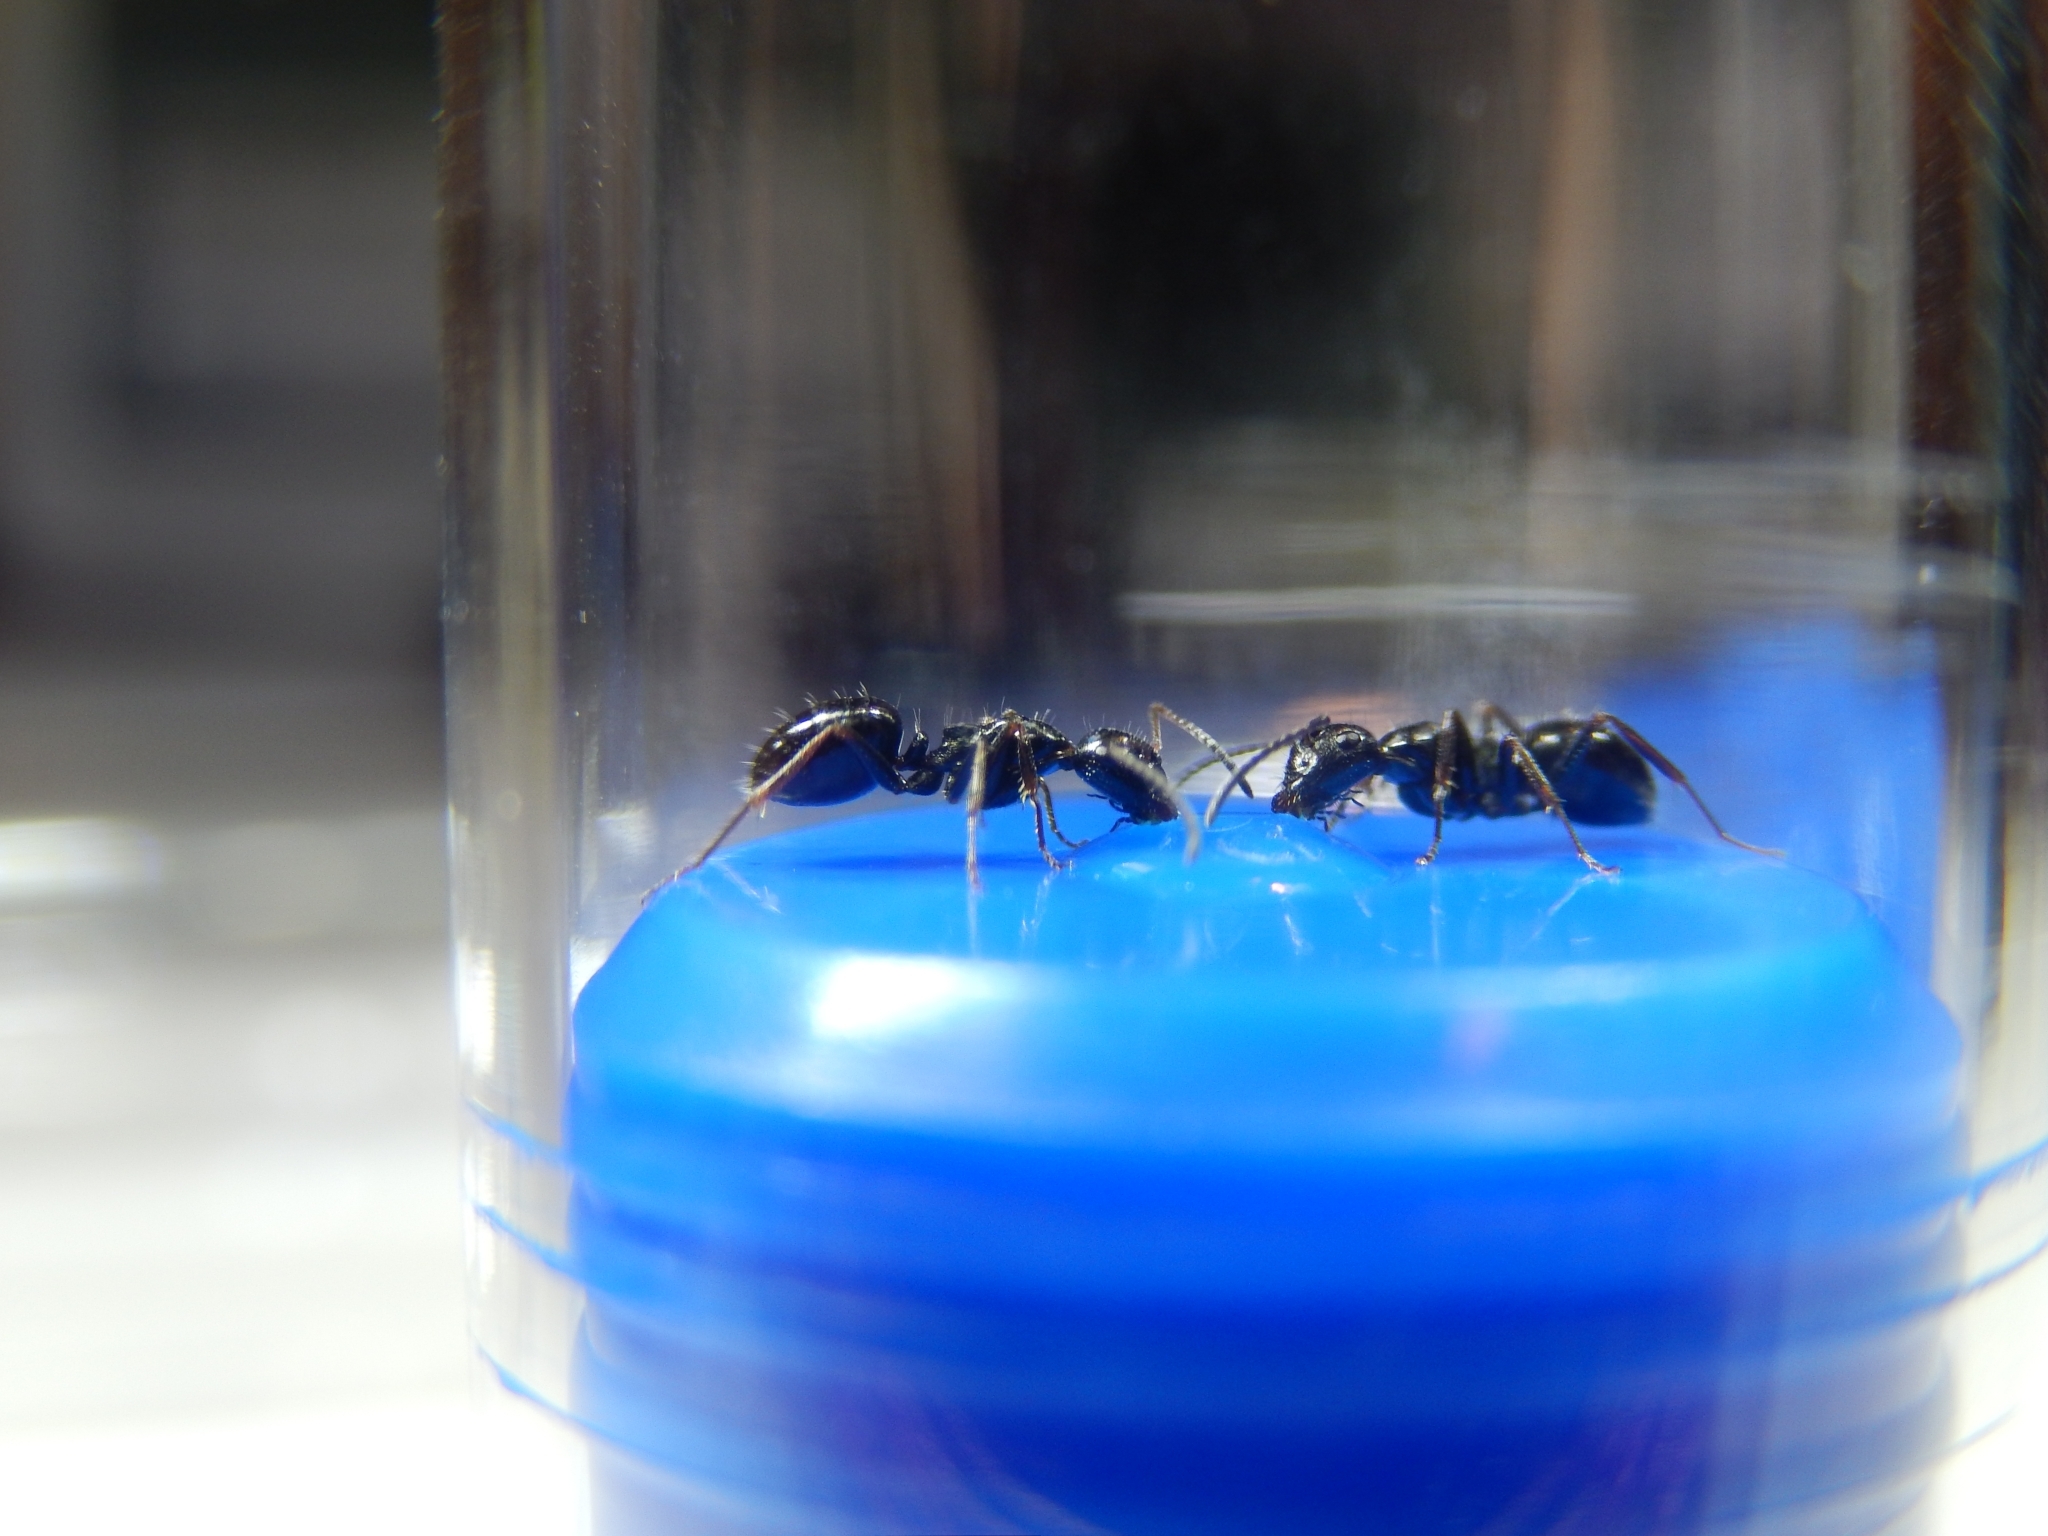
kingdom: Animalia
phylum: Arthropoda
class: Insecta
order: Hymenoptera
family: Formicidae
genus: Camponotus
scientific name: Camponotus piceus
